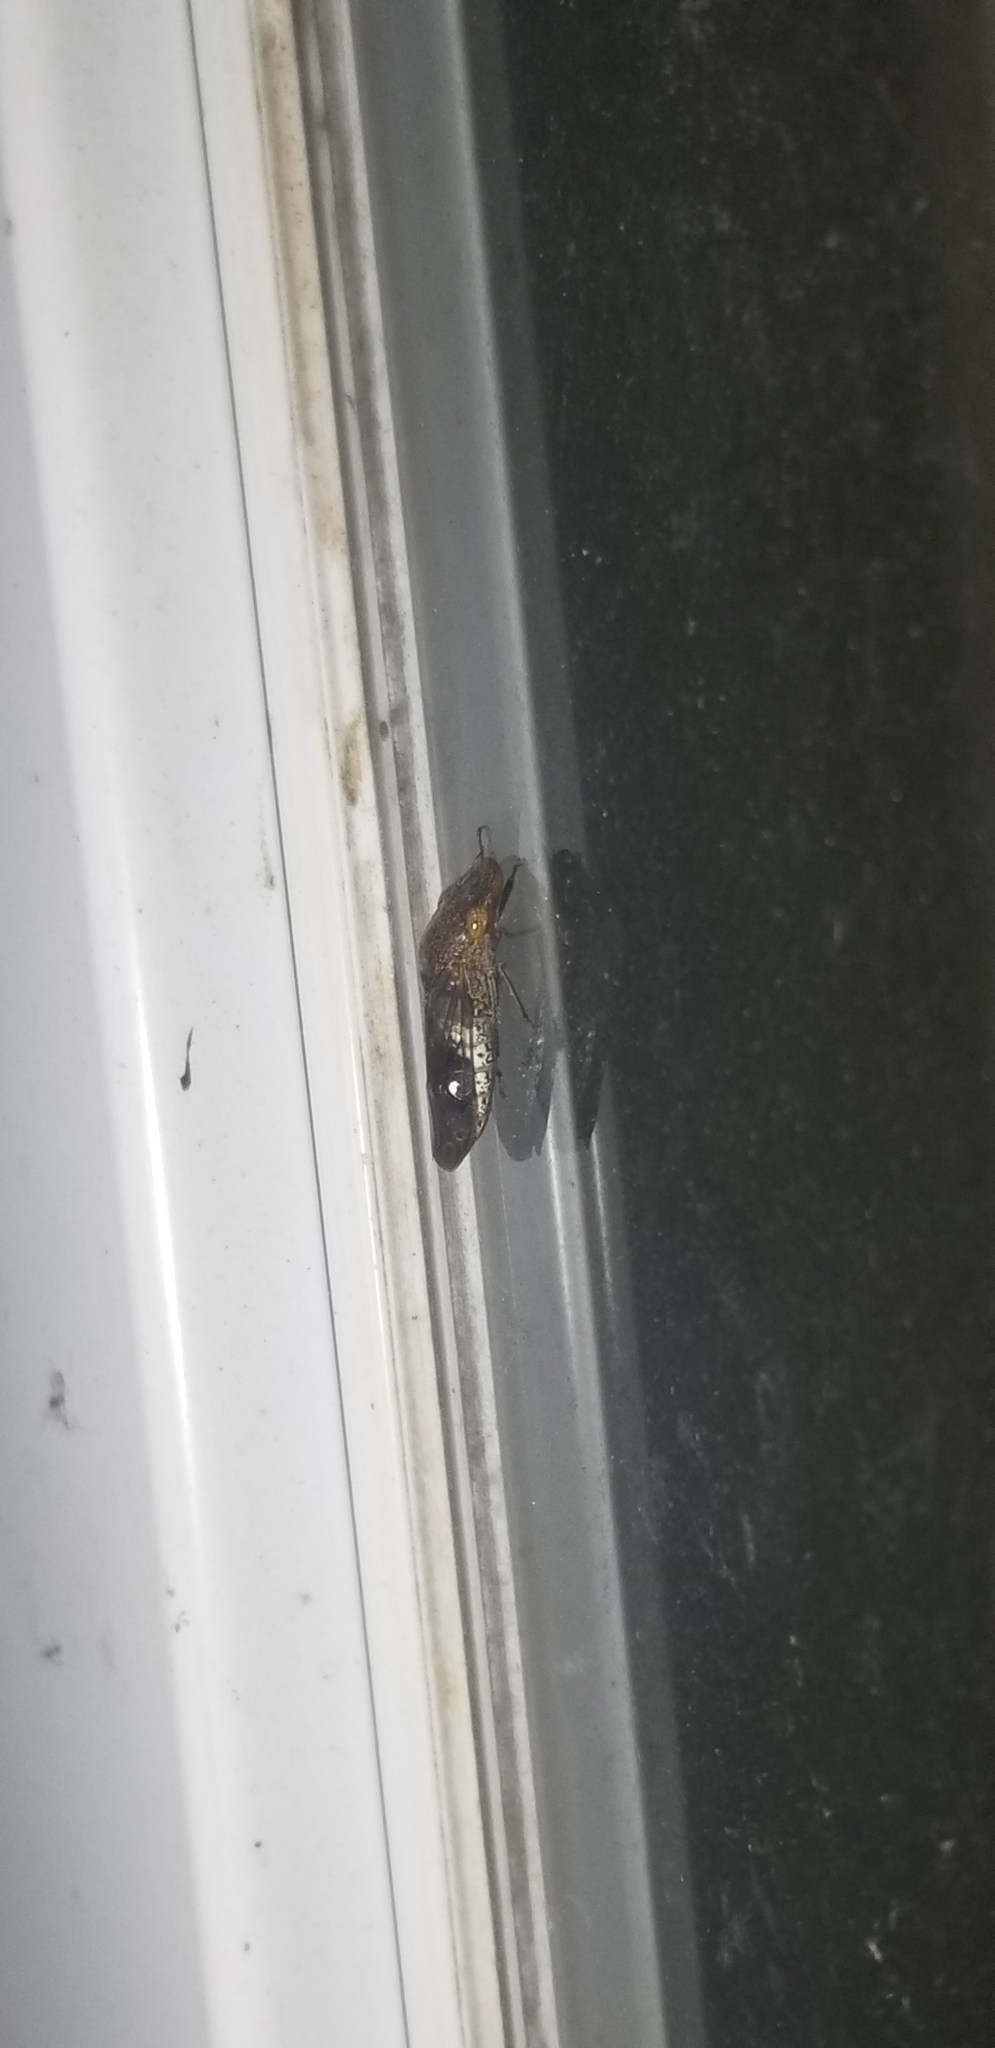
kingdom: Animalia
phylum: Arthropoda
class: Insecta
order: Hemiptera
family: Cicadellidae
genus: Homalodisca
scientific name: Homalodisca vitripennis
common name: Glassy-winged sharpshooter
